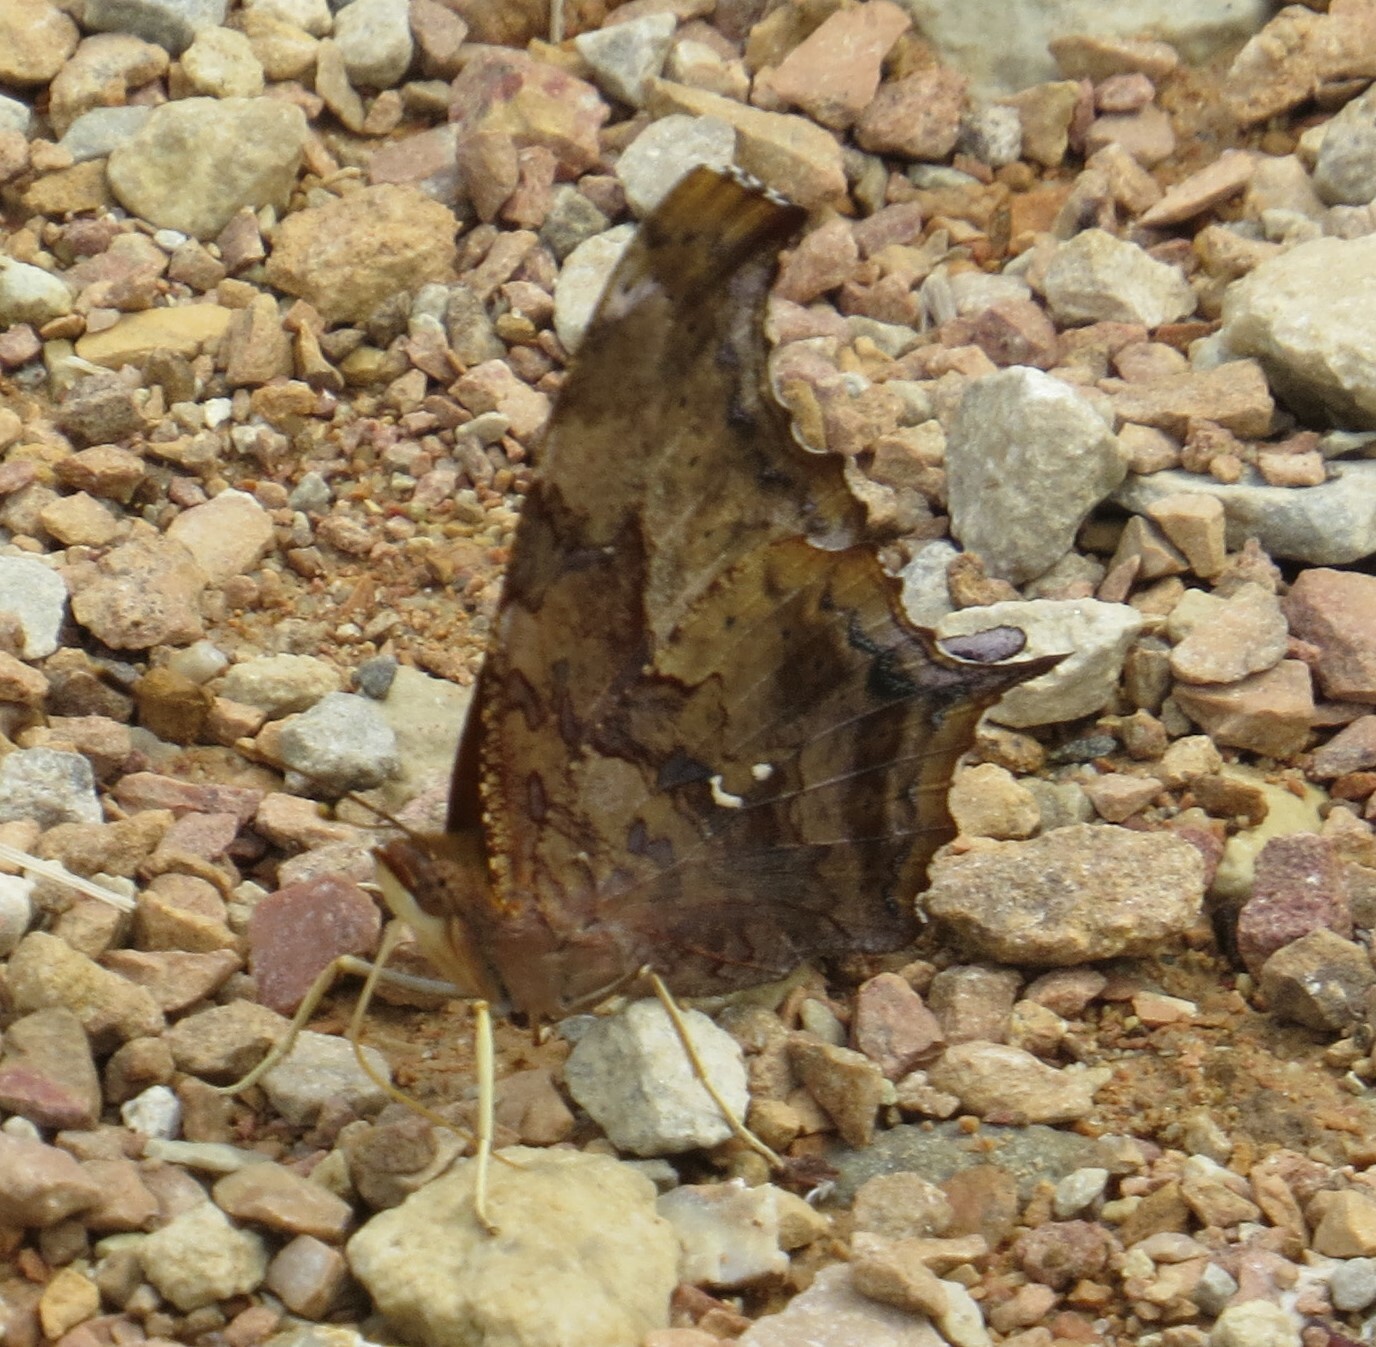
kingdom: Animalia
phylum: Arthropoda
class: Insecta
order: Lepidoptera
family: Nymphalidae
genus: Polygonia
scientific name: Polygonia interrogationis
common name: Question mark
